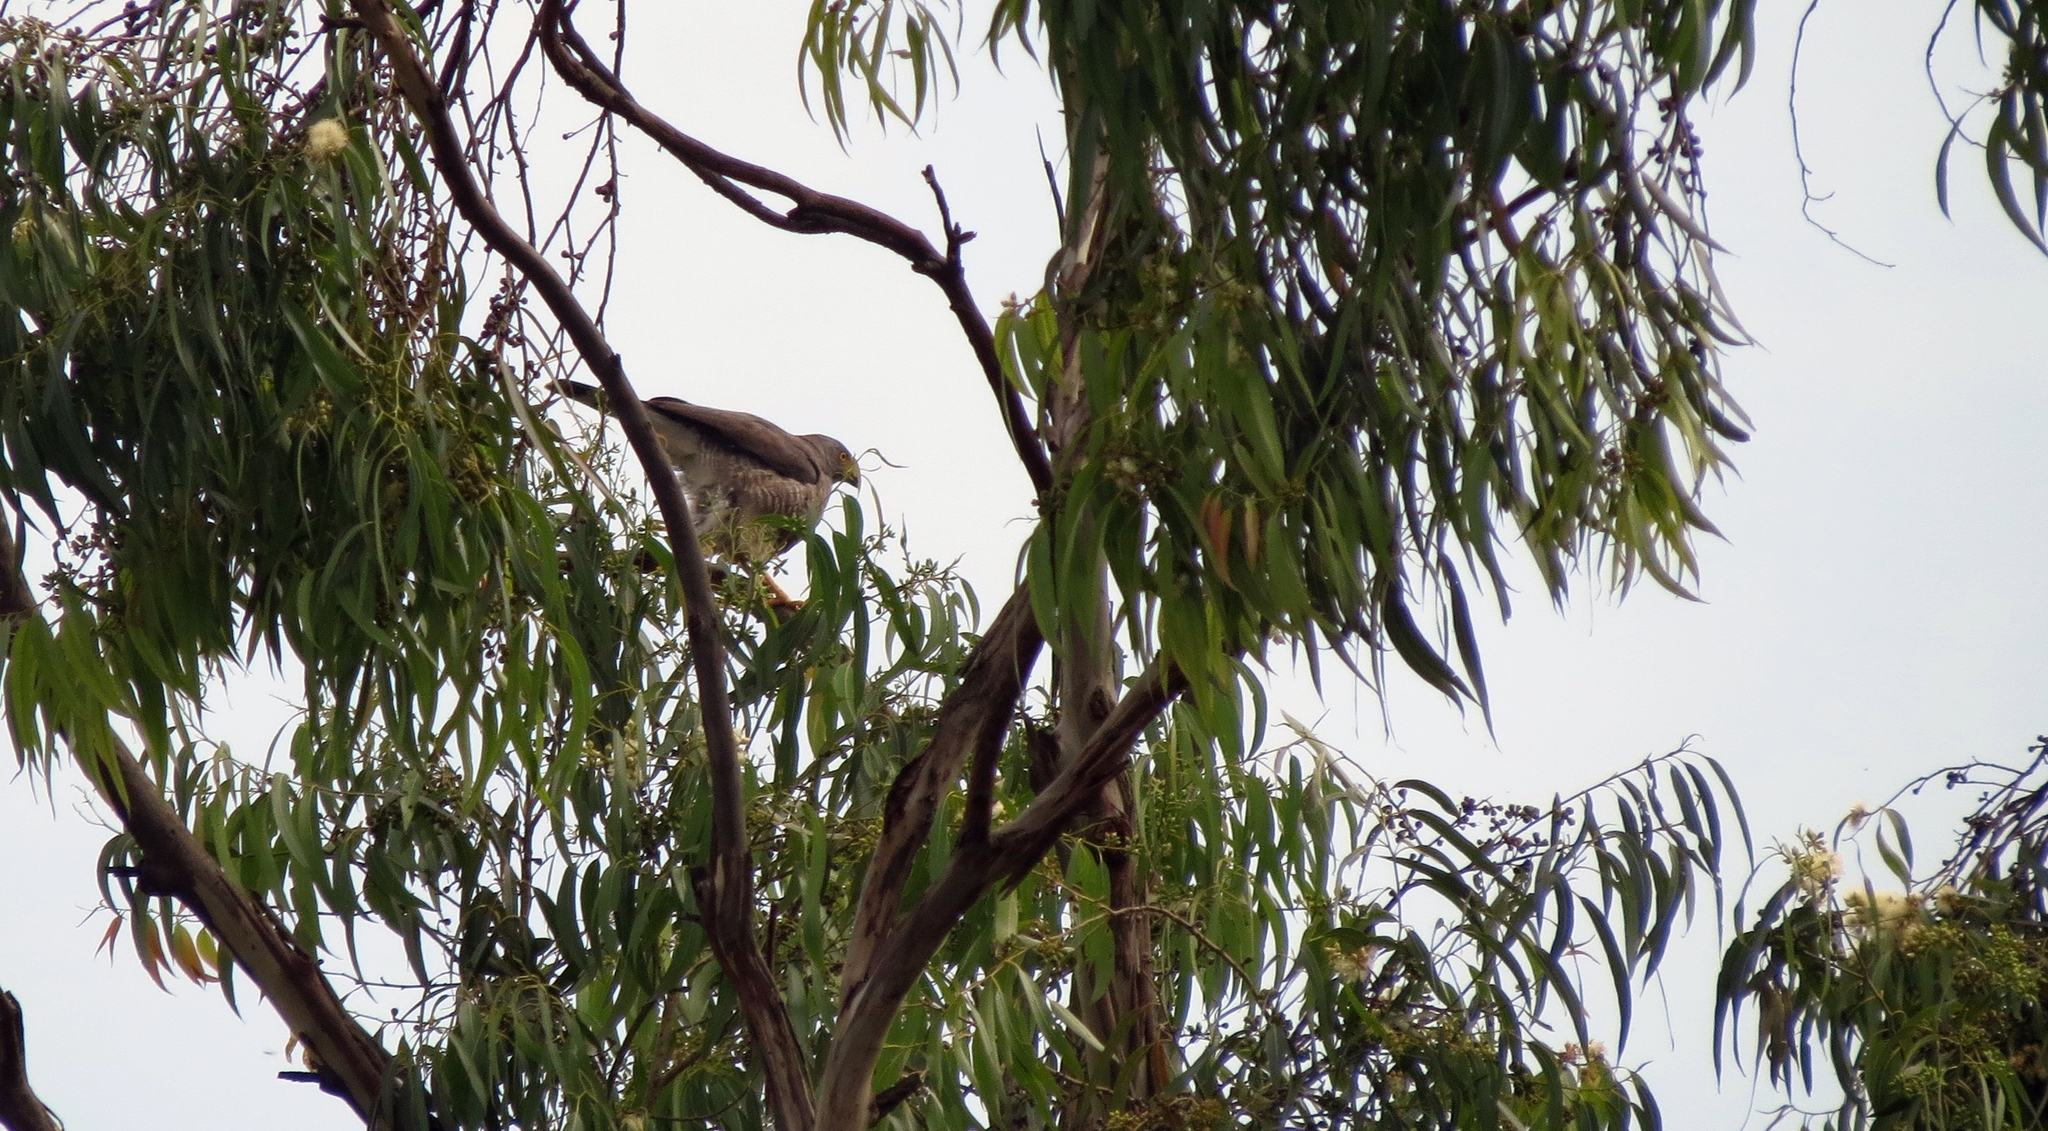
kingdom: Animalia
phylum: Chordata
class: Aves
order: Accipitriformes
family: Accipitridae
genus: Rupornis
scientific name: Rupornis magnirostris
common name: Roadside hawk
